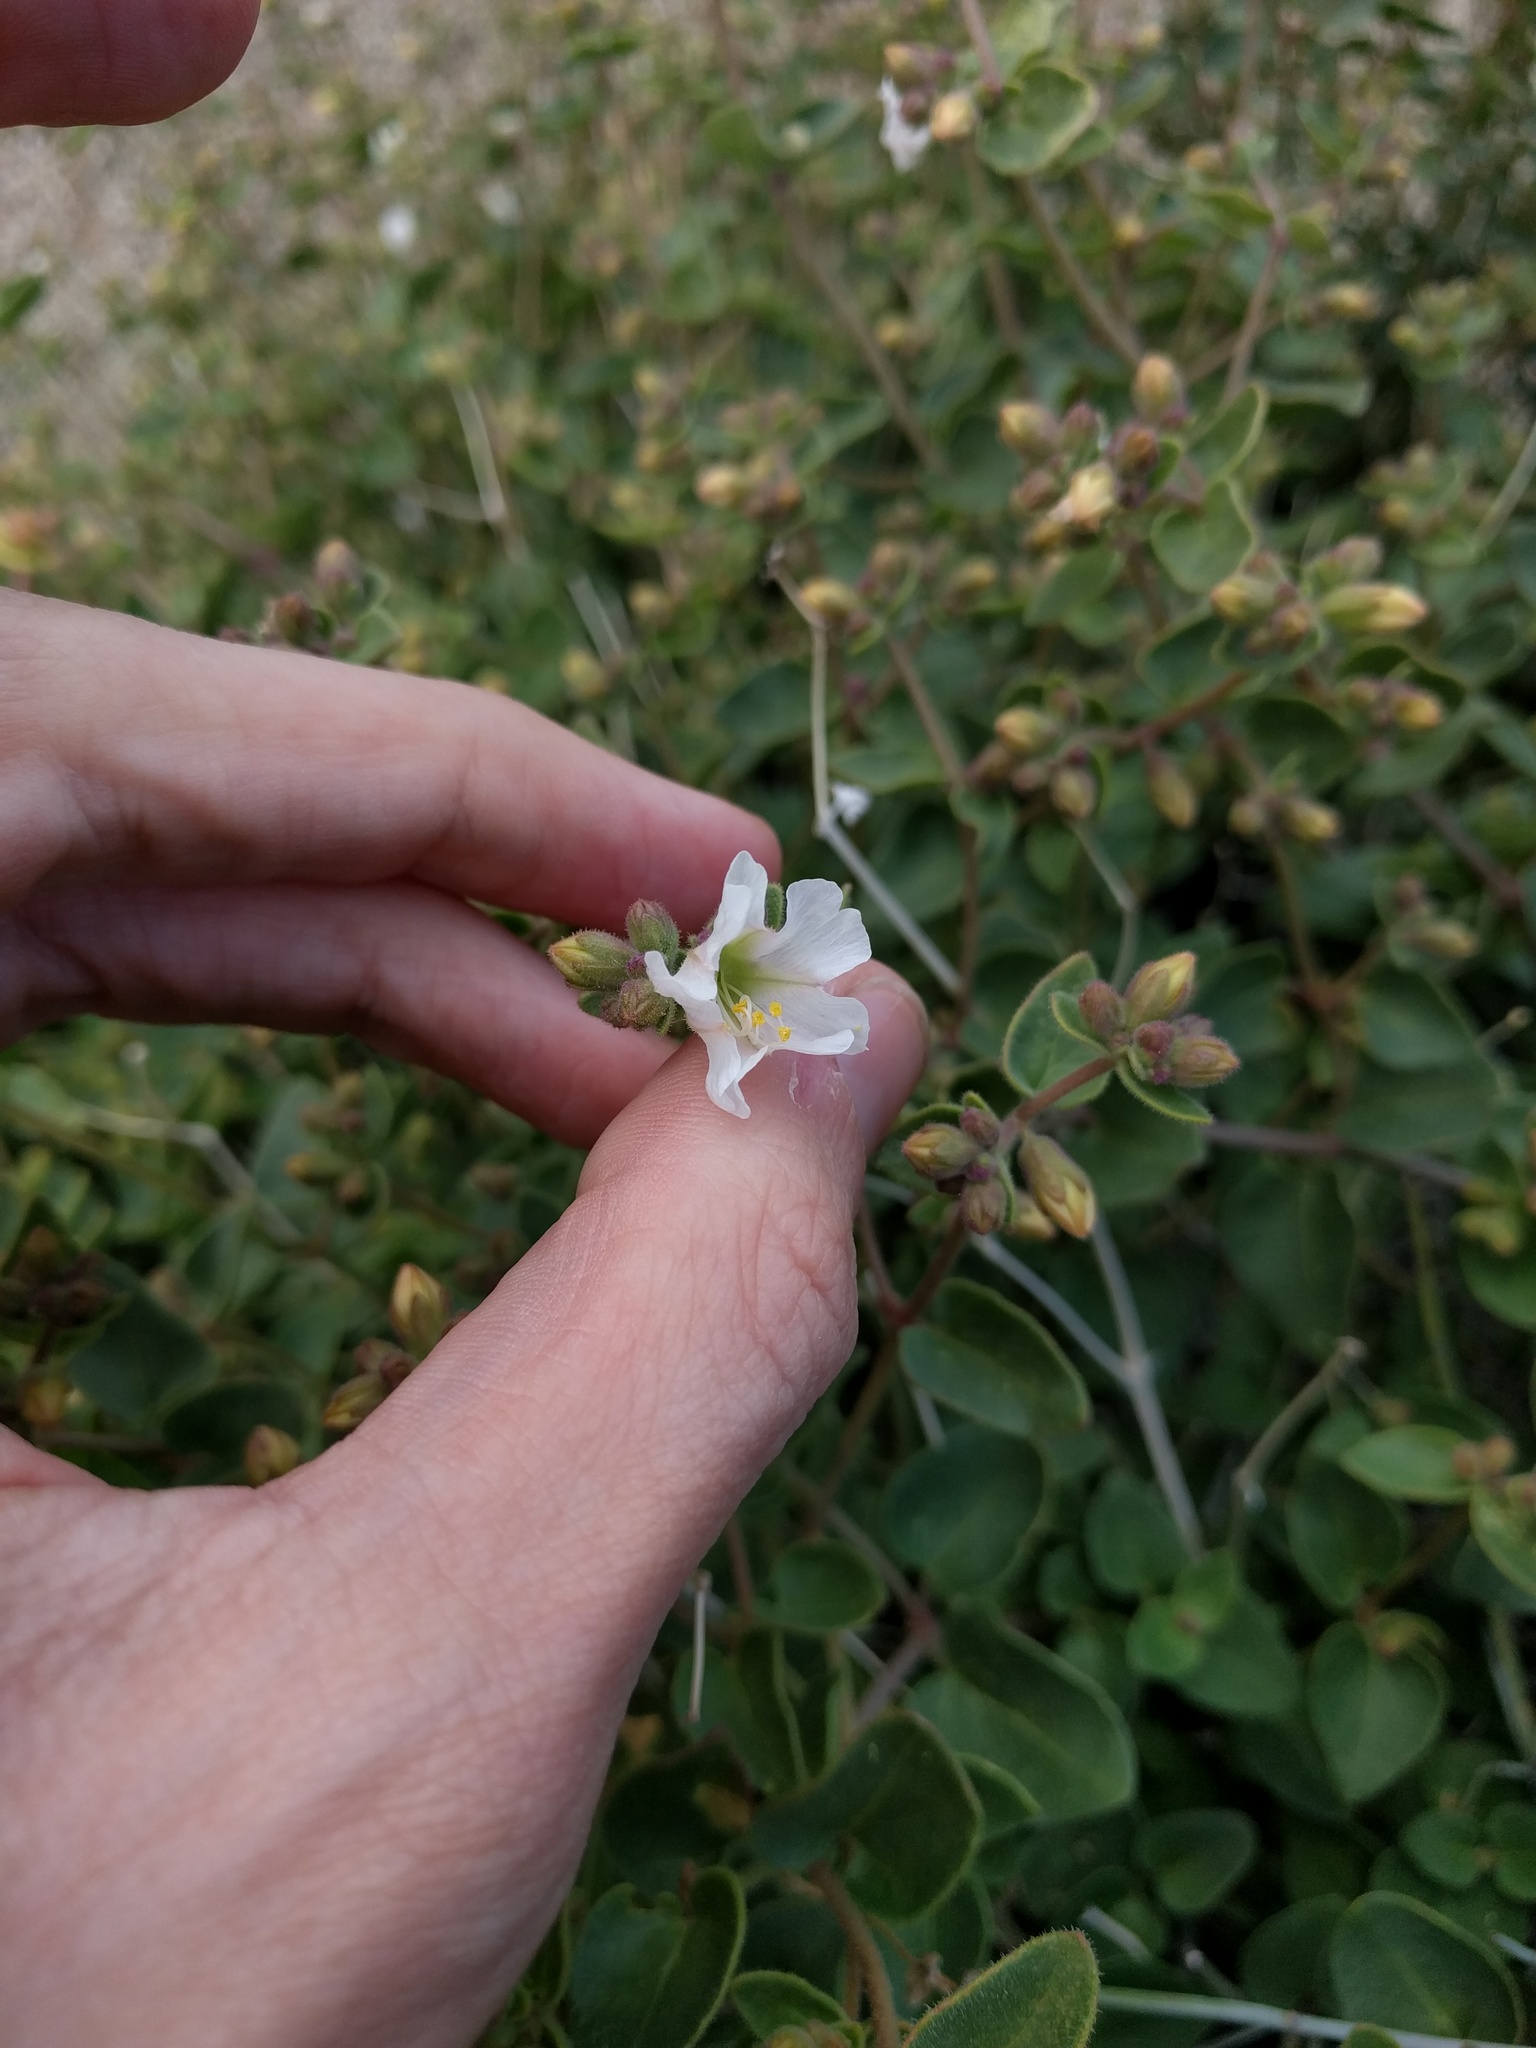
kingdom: Plantae
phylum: Tracheophyta
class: Magnoliopsida
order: Caryophyllales
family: Nyctaginaceae
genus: Mirabilis
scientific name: Mirabilis laevis
